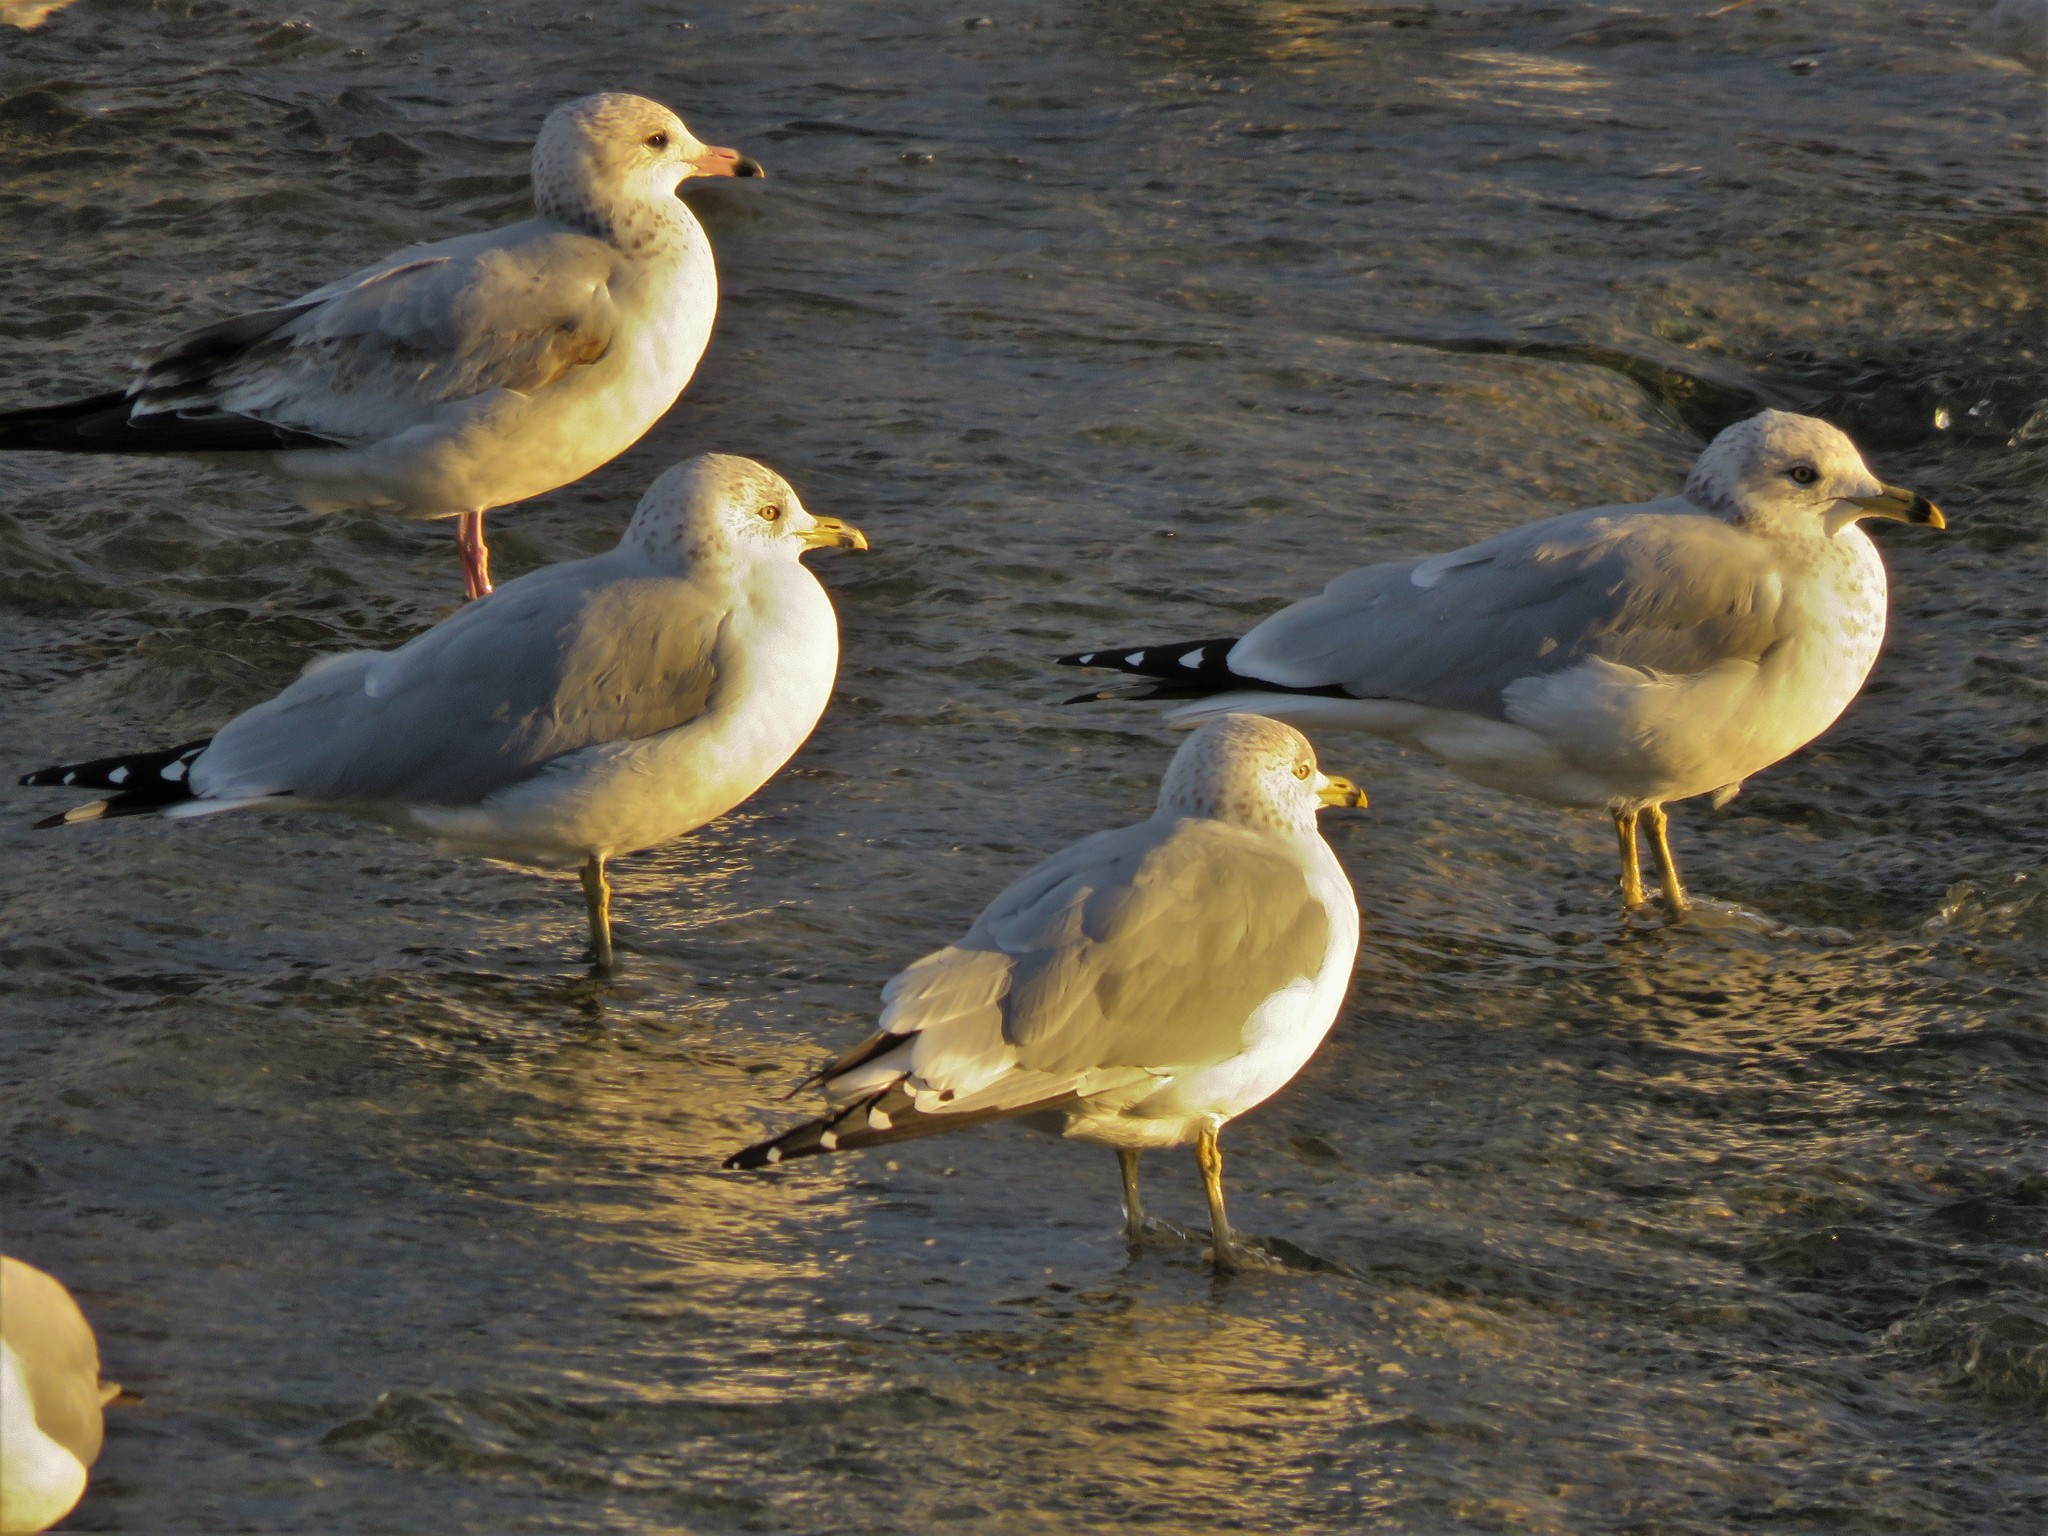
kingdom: Animalia
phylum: Chordata
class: Aves
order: Charadriiformes
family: Laridae
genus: Larus
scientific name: Larus delawarensis
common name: Ring-billed gull
